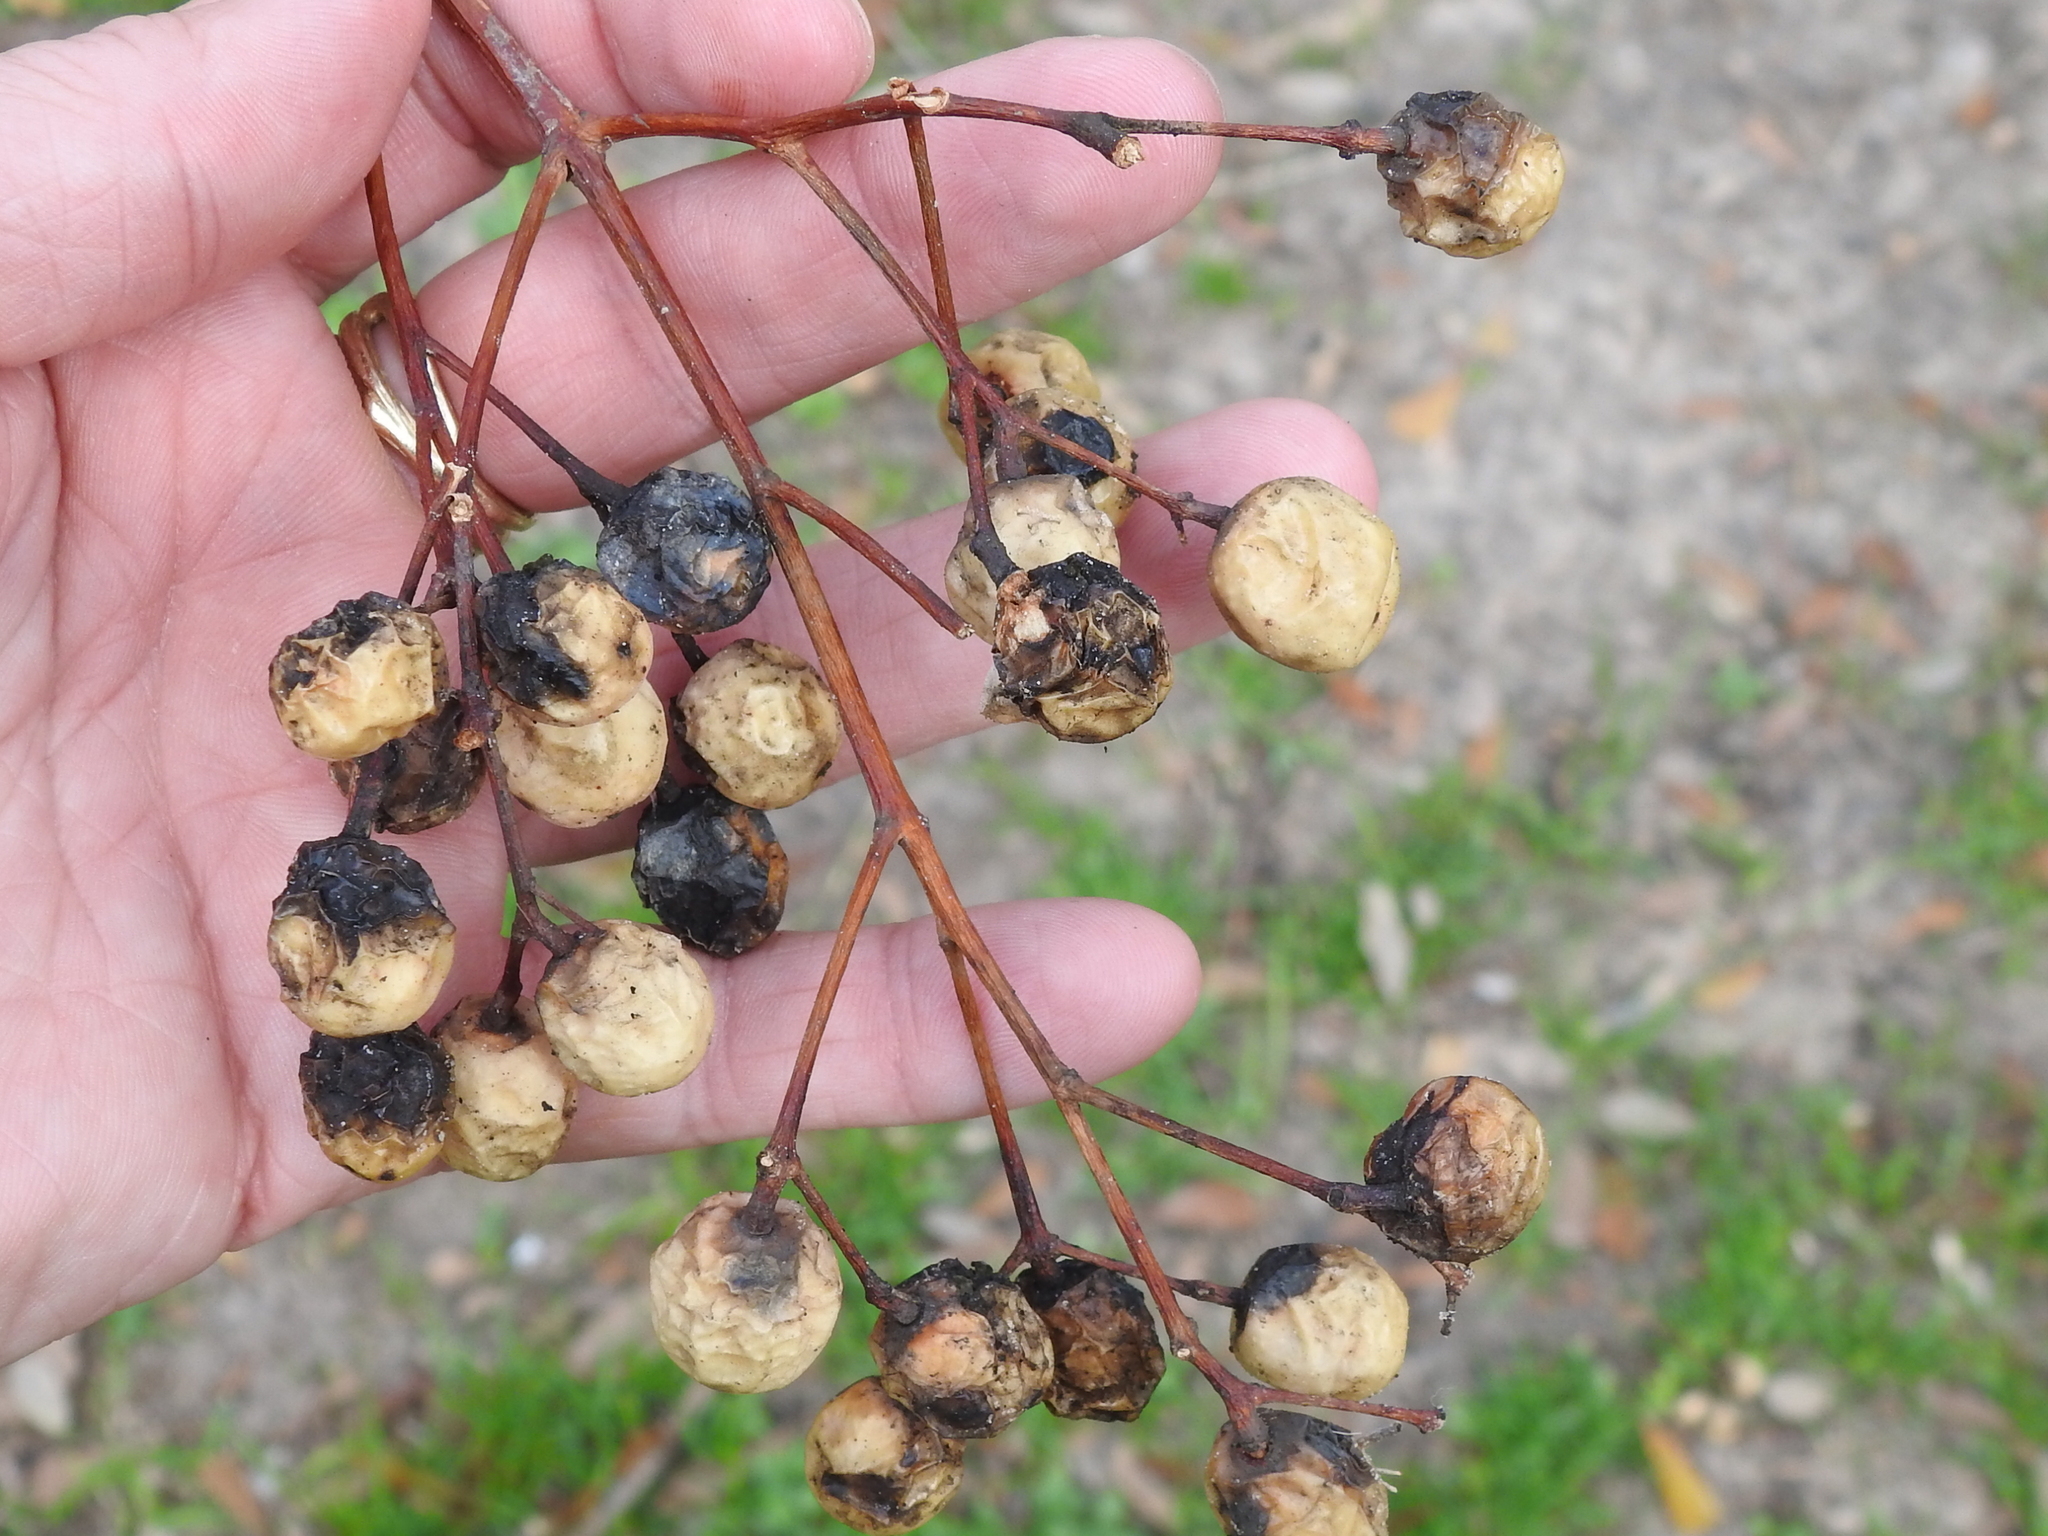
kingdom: Plantae
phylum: Tracheophyta
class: Magnoliopsida
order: Sapindales
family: Meliaceae
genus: Melia
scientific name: Melia azedarach
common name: Chinaberrytree
